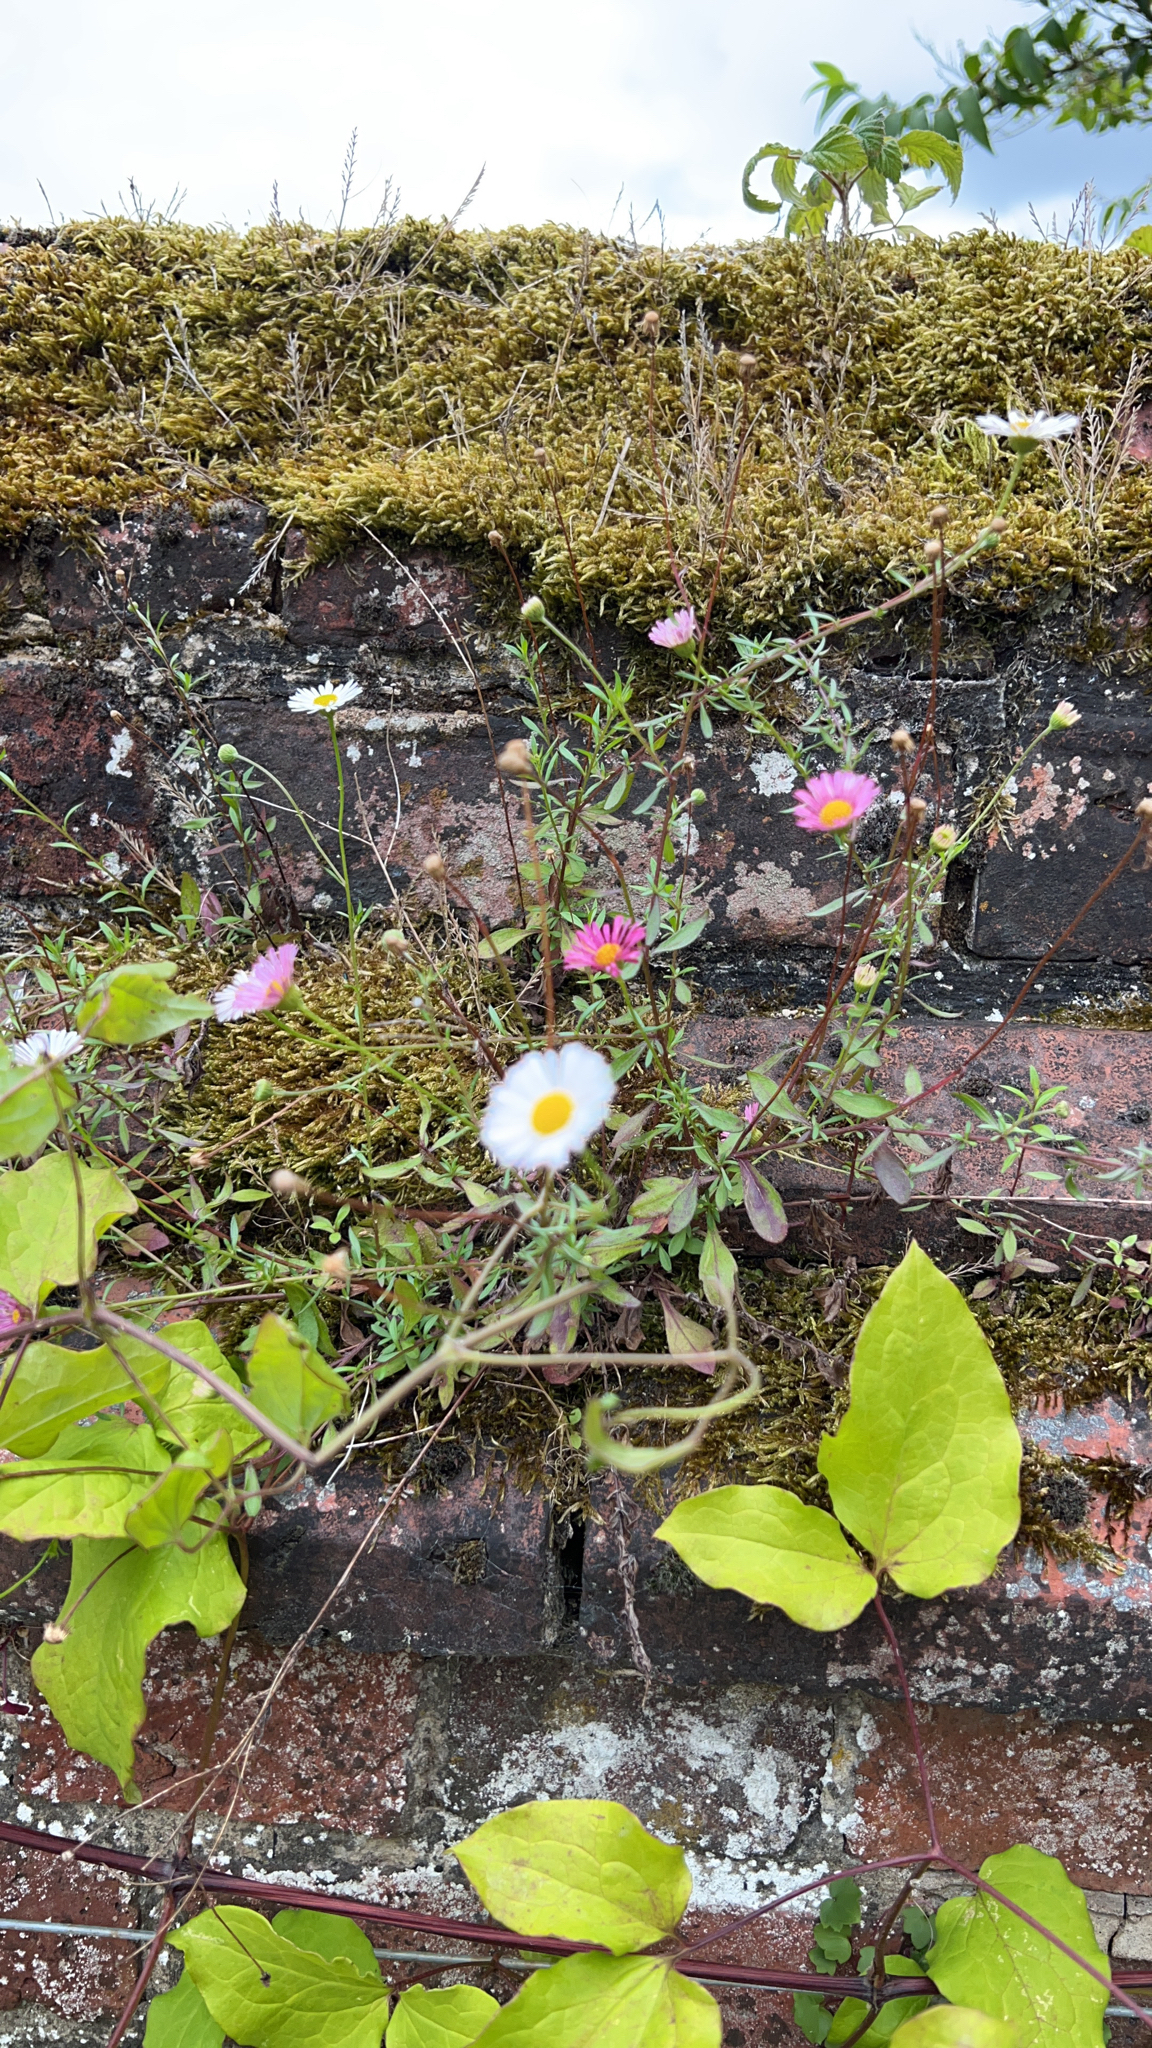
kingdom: Plantae
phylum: Tracheophyta
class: Magnoliopsida
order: Asterales
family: Asteraceae
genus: Erigeron
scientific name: Erigeron karvinskianus
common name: Mexican fleabane
